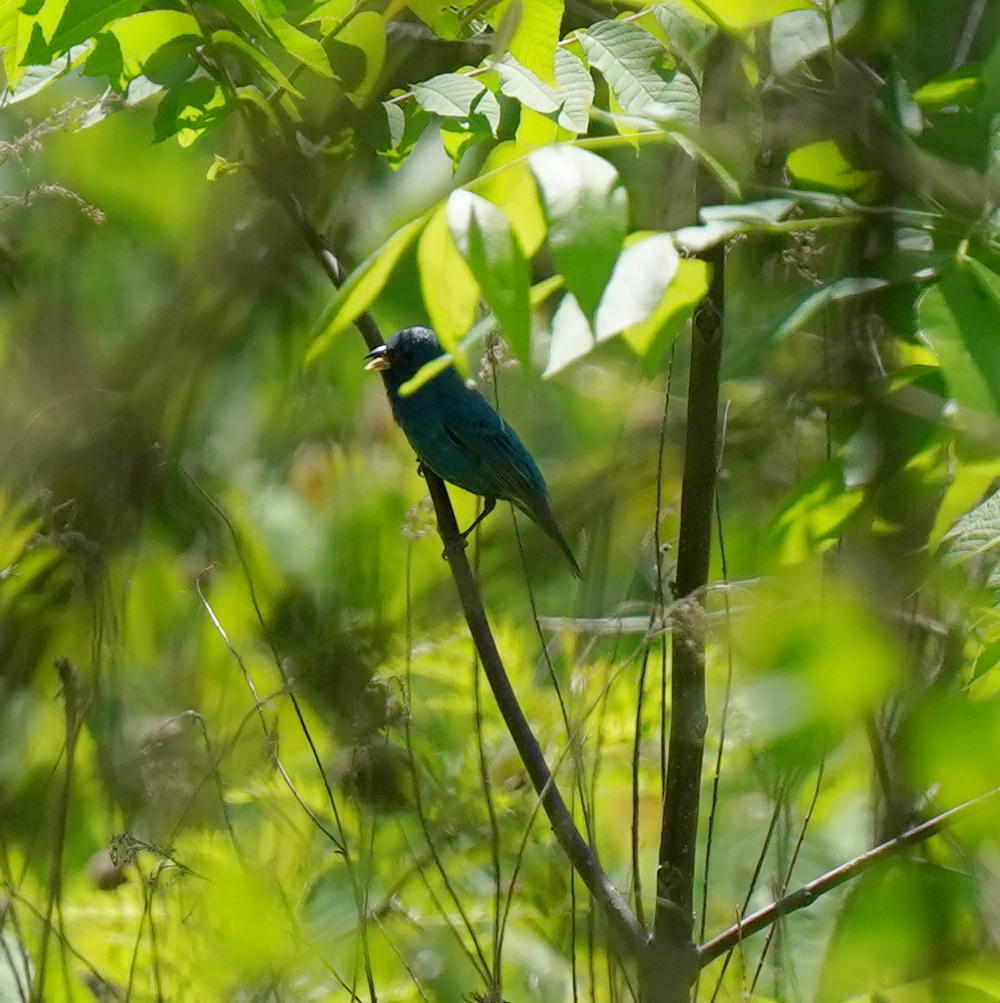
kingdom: Animalia
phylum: Chordata
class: Aves
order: Passeriformes
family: Cardinalidae
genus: Passerina
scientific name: Passerina cyanea
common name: Indigo bunting
